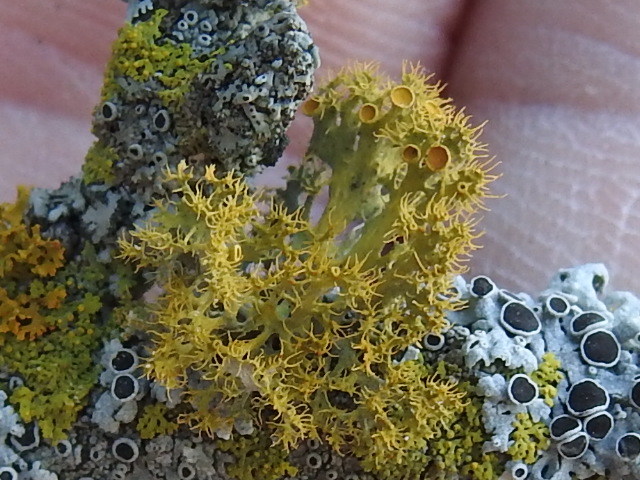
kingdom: Fungi
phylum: Ascomycota
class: Lecanoromycetes
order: Teloschistales
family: Teloschistaceae
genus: Niorma
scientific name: Niorma chrysophthalma
